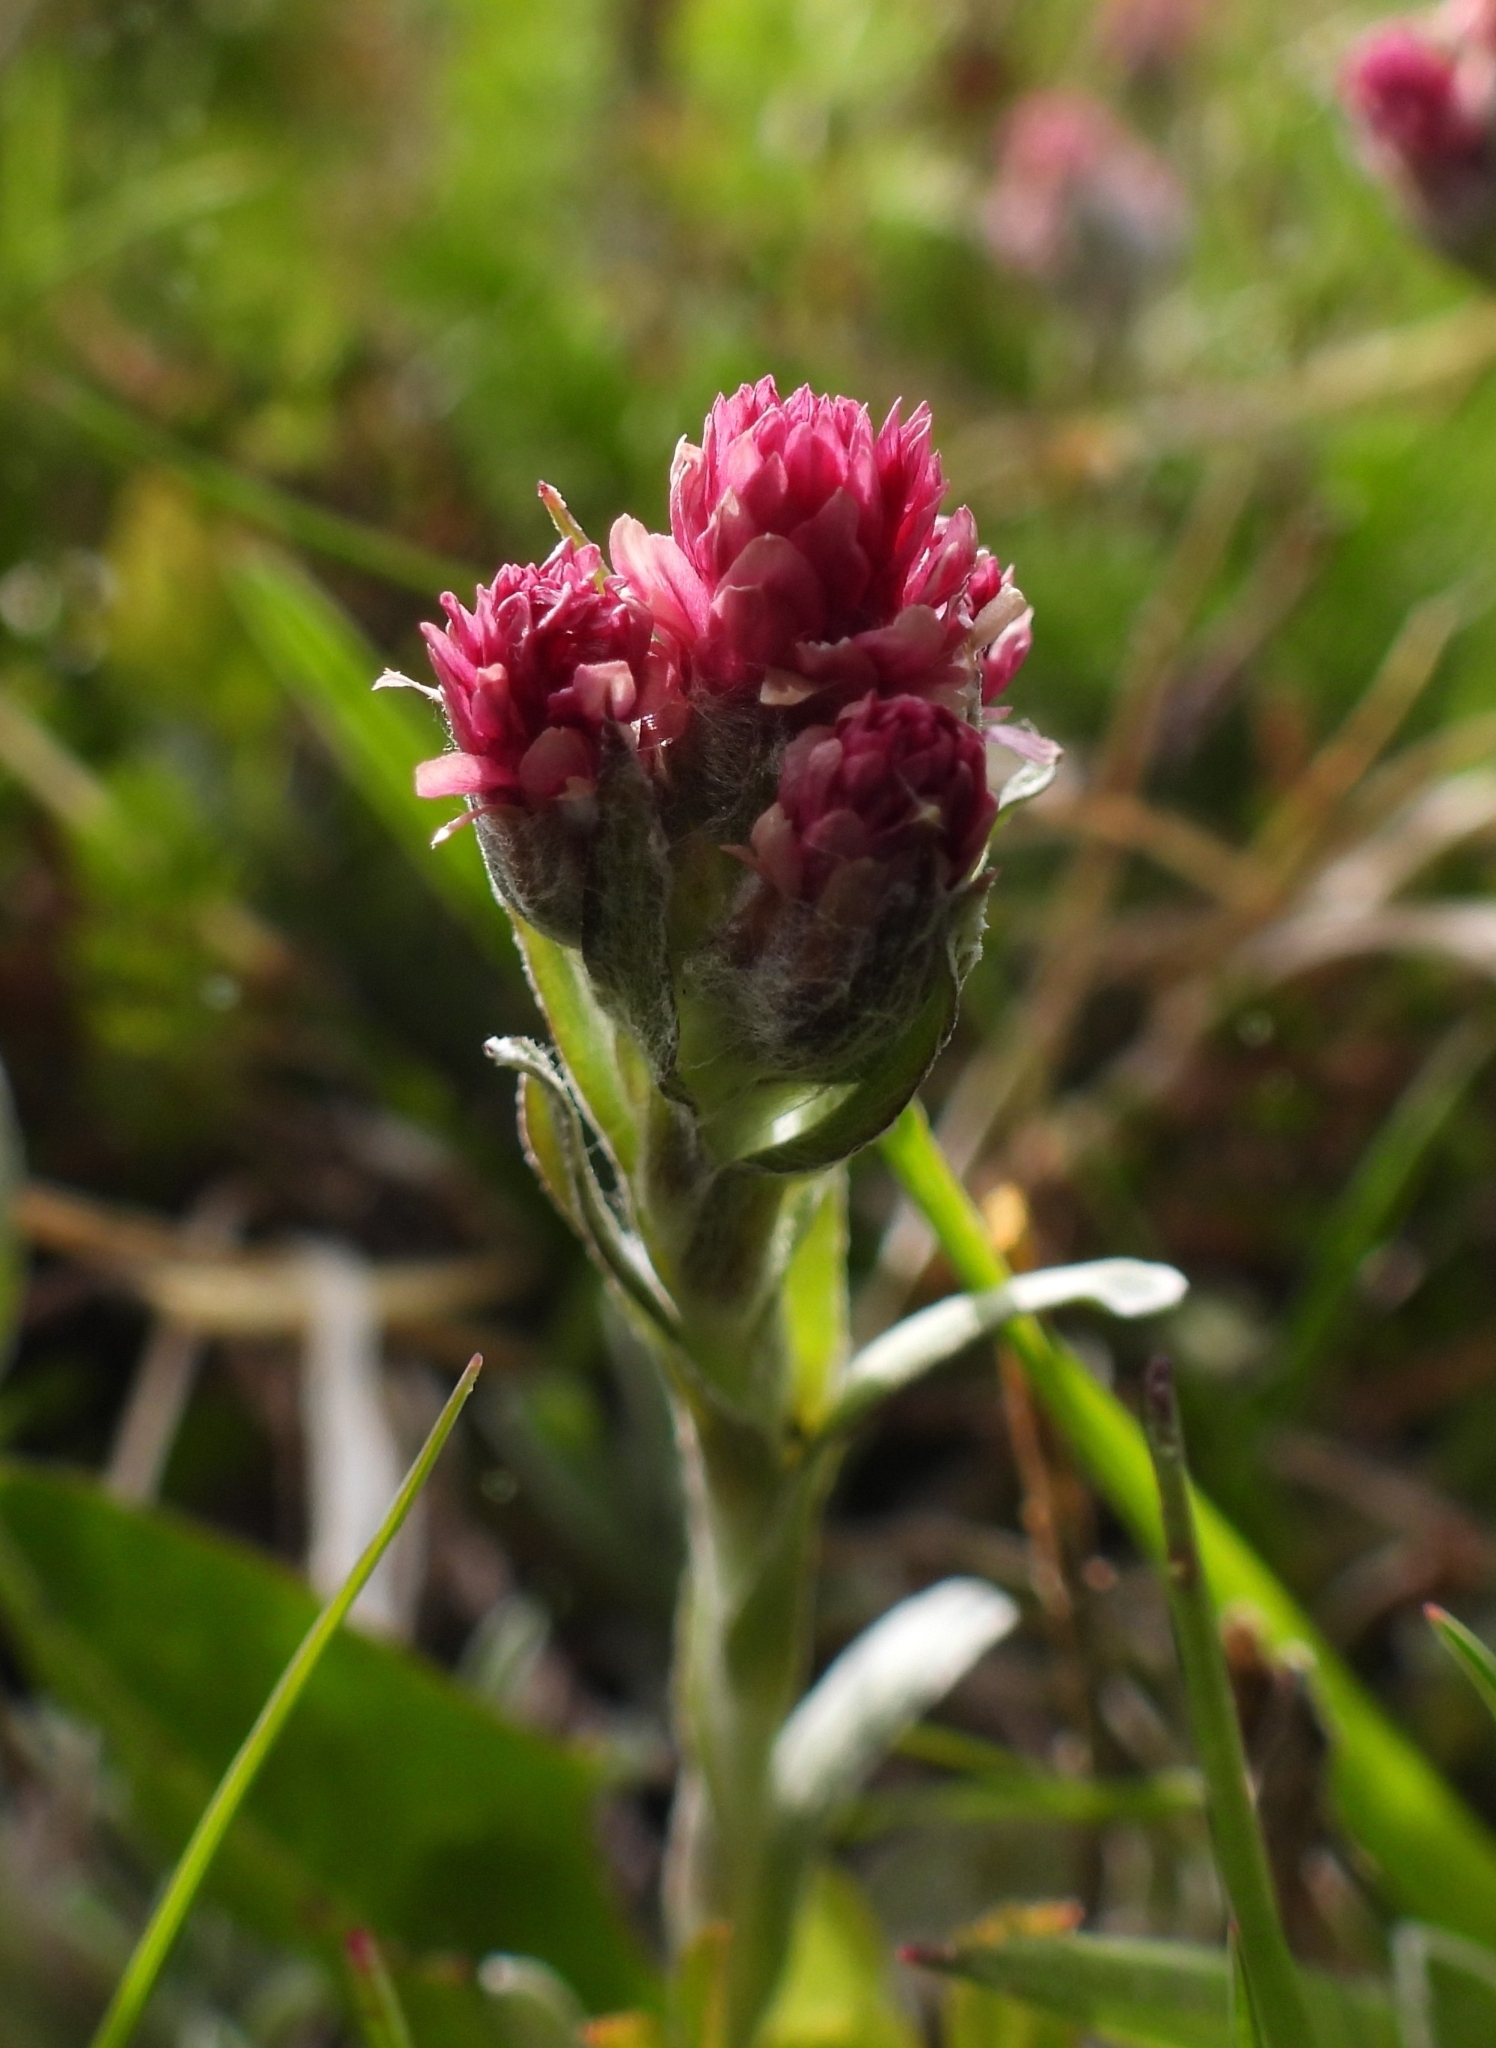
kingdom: Plantae
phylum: Tracheophyta
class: Magnoliopsida
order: Asterales
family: Asteraceae
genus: Antennaria
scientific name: Antennaria dioica
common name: Mountain everlasting
